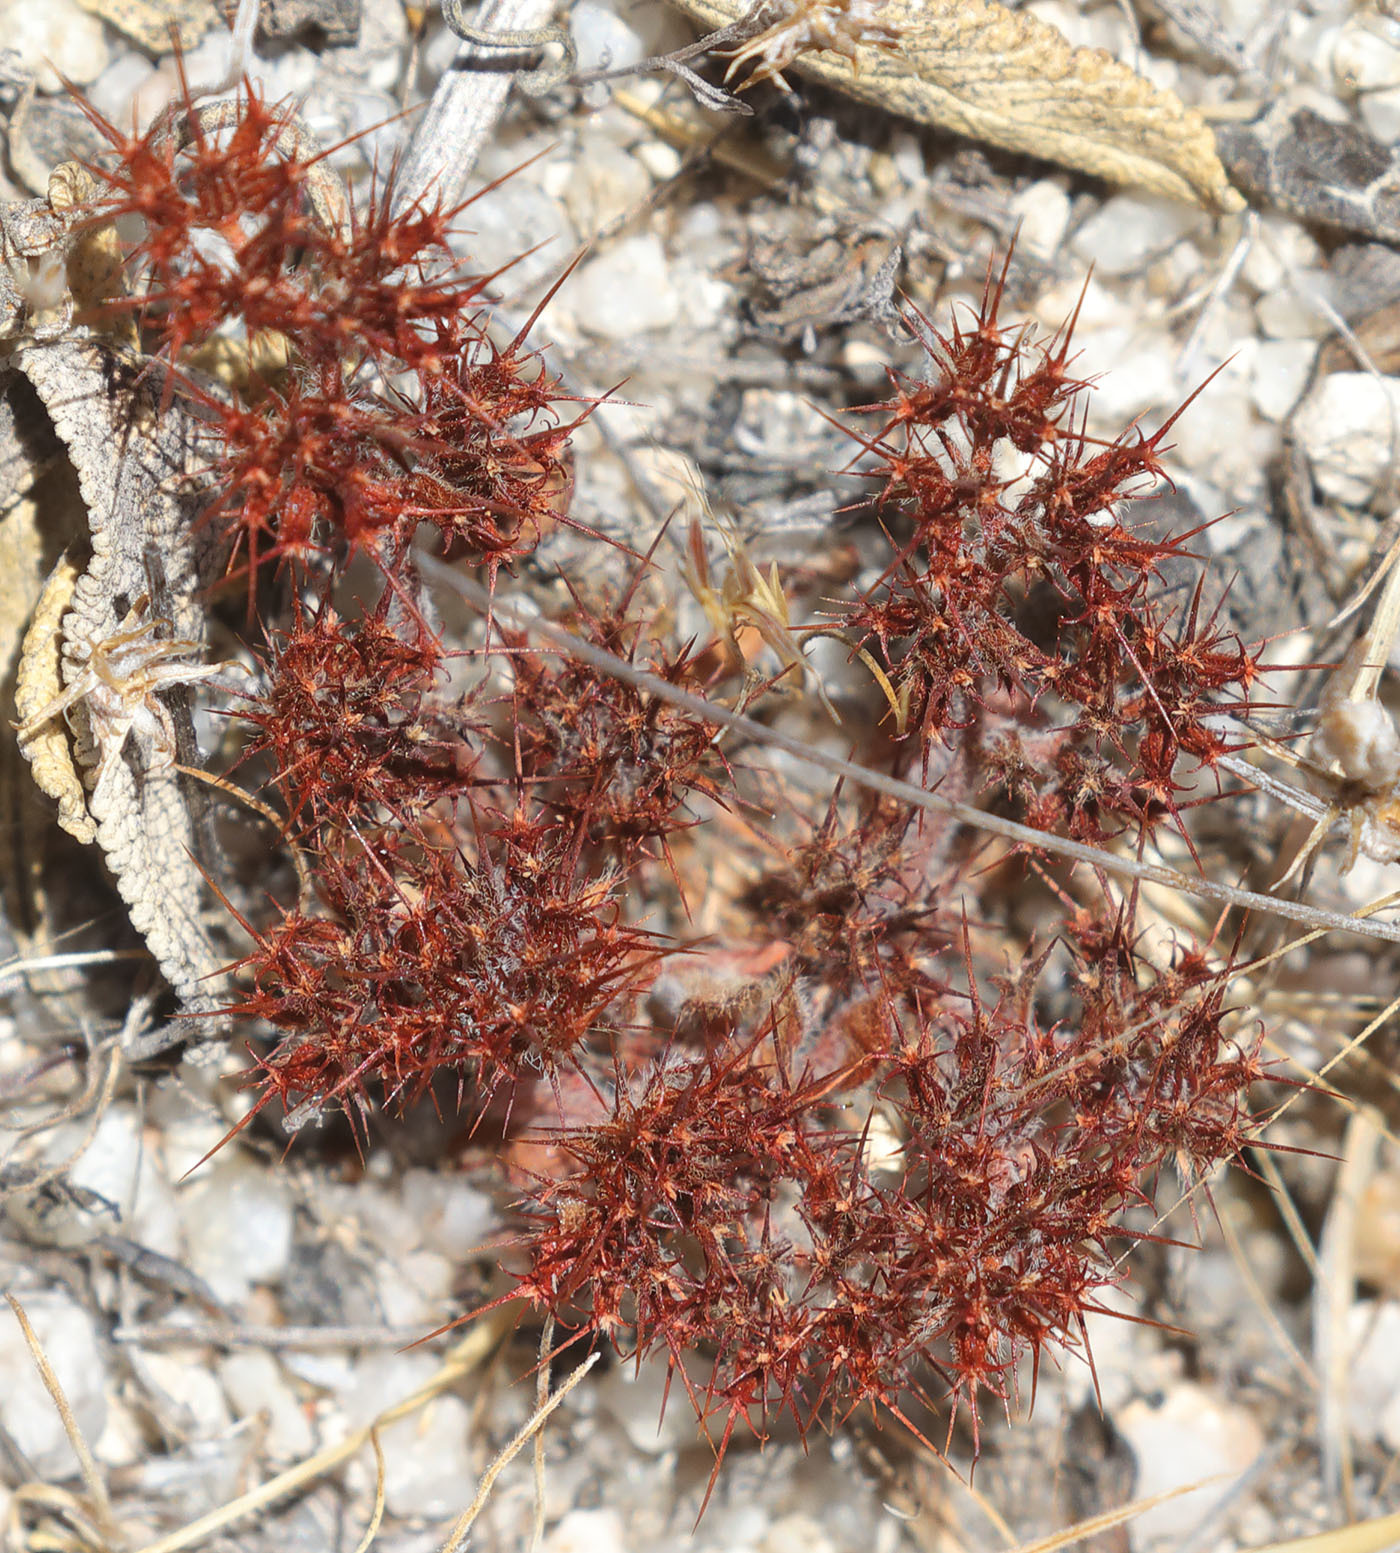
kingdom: Plantae
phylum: Tracheophyta
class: Magnoliopsida
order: Caryophyllales
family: Polygonaceae
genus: Chorizanthe
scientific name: Chorizanthe uniaristata
